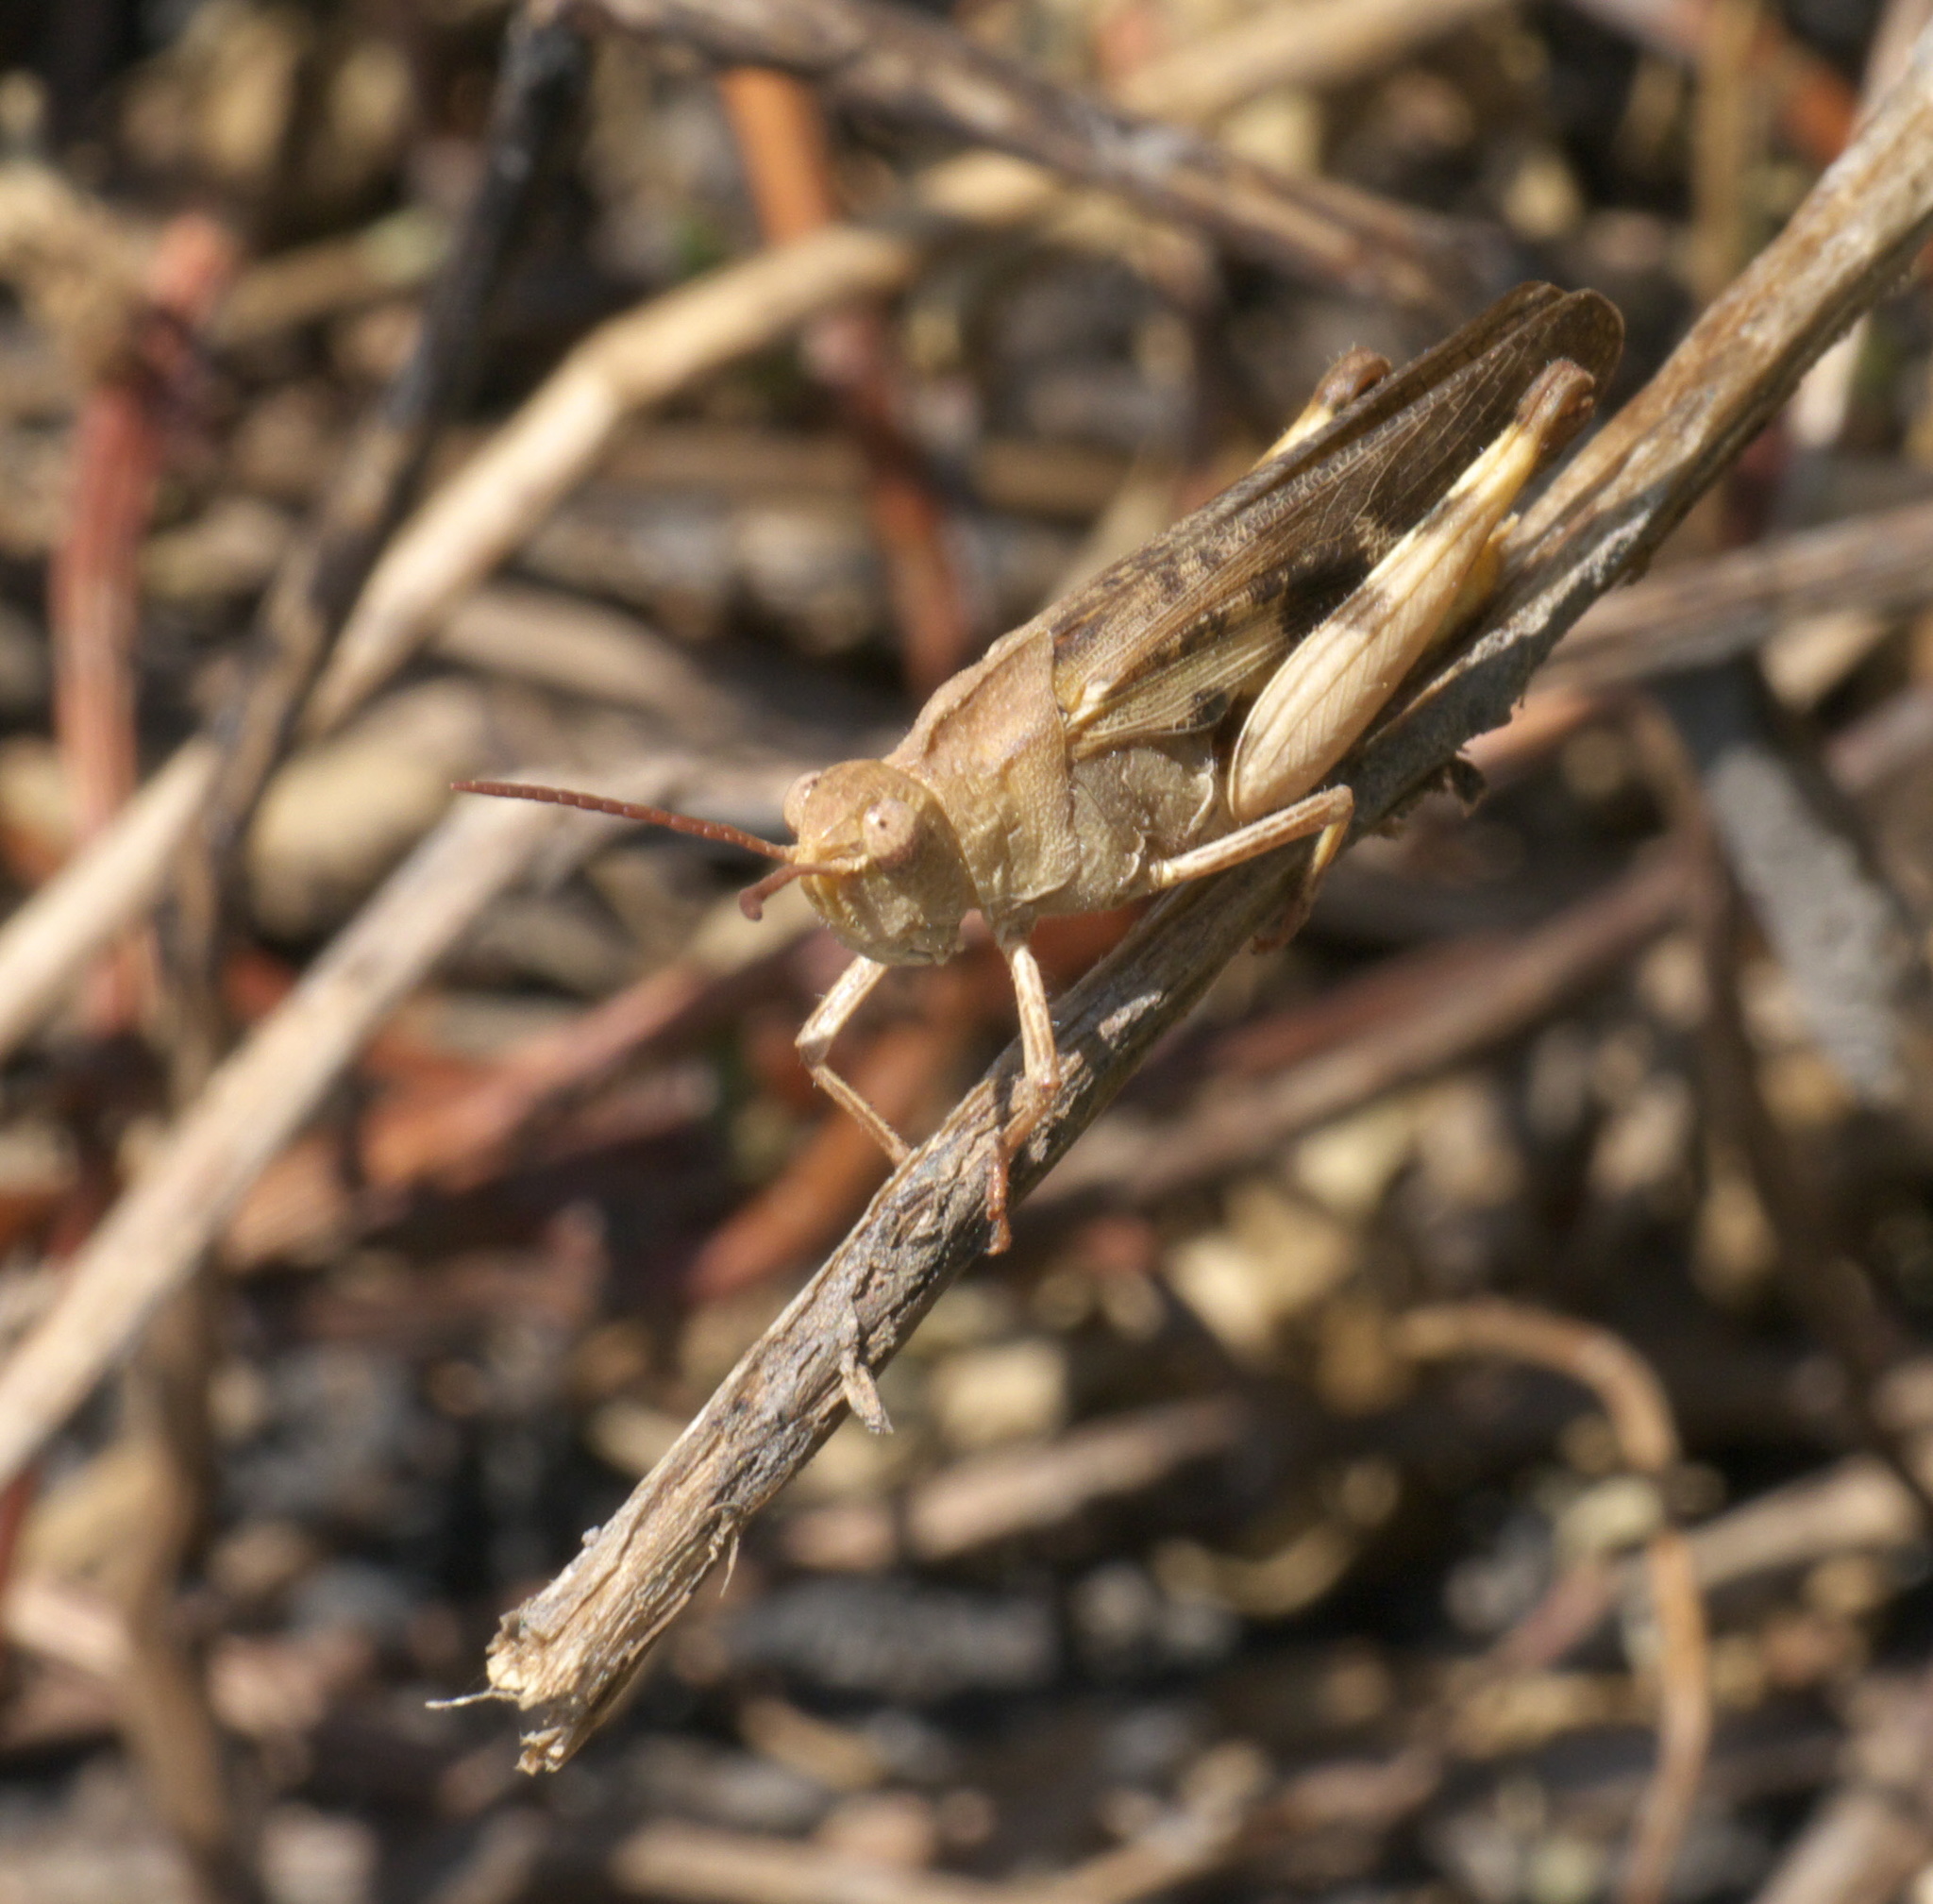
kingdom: Animalia
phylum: Arthropoda
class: Insecta
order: Orthoptera
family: Acrididae
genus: Chortophaga
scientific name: Chortophaga viridifasciata
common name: Green-striped grasshopper
